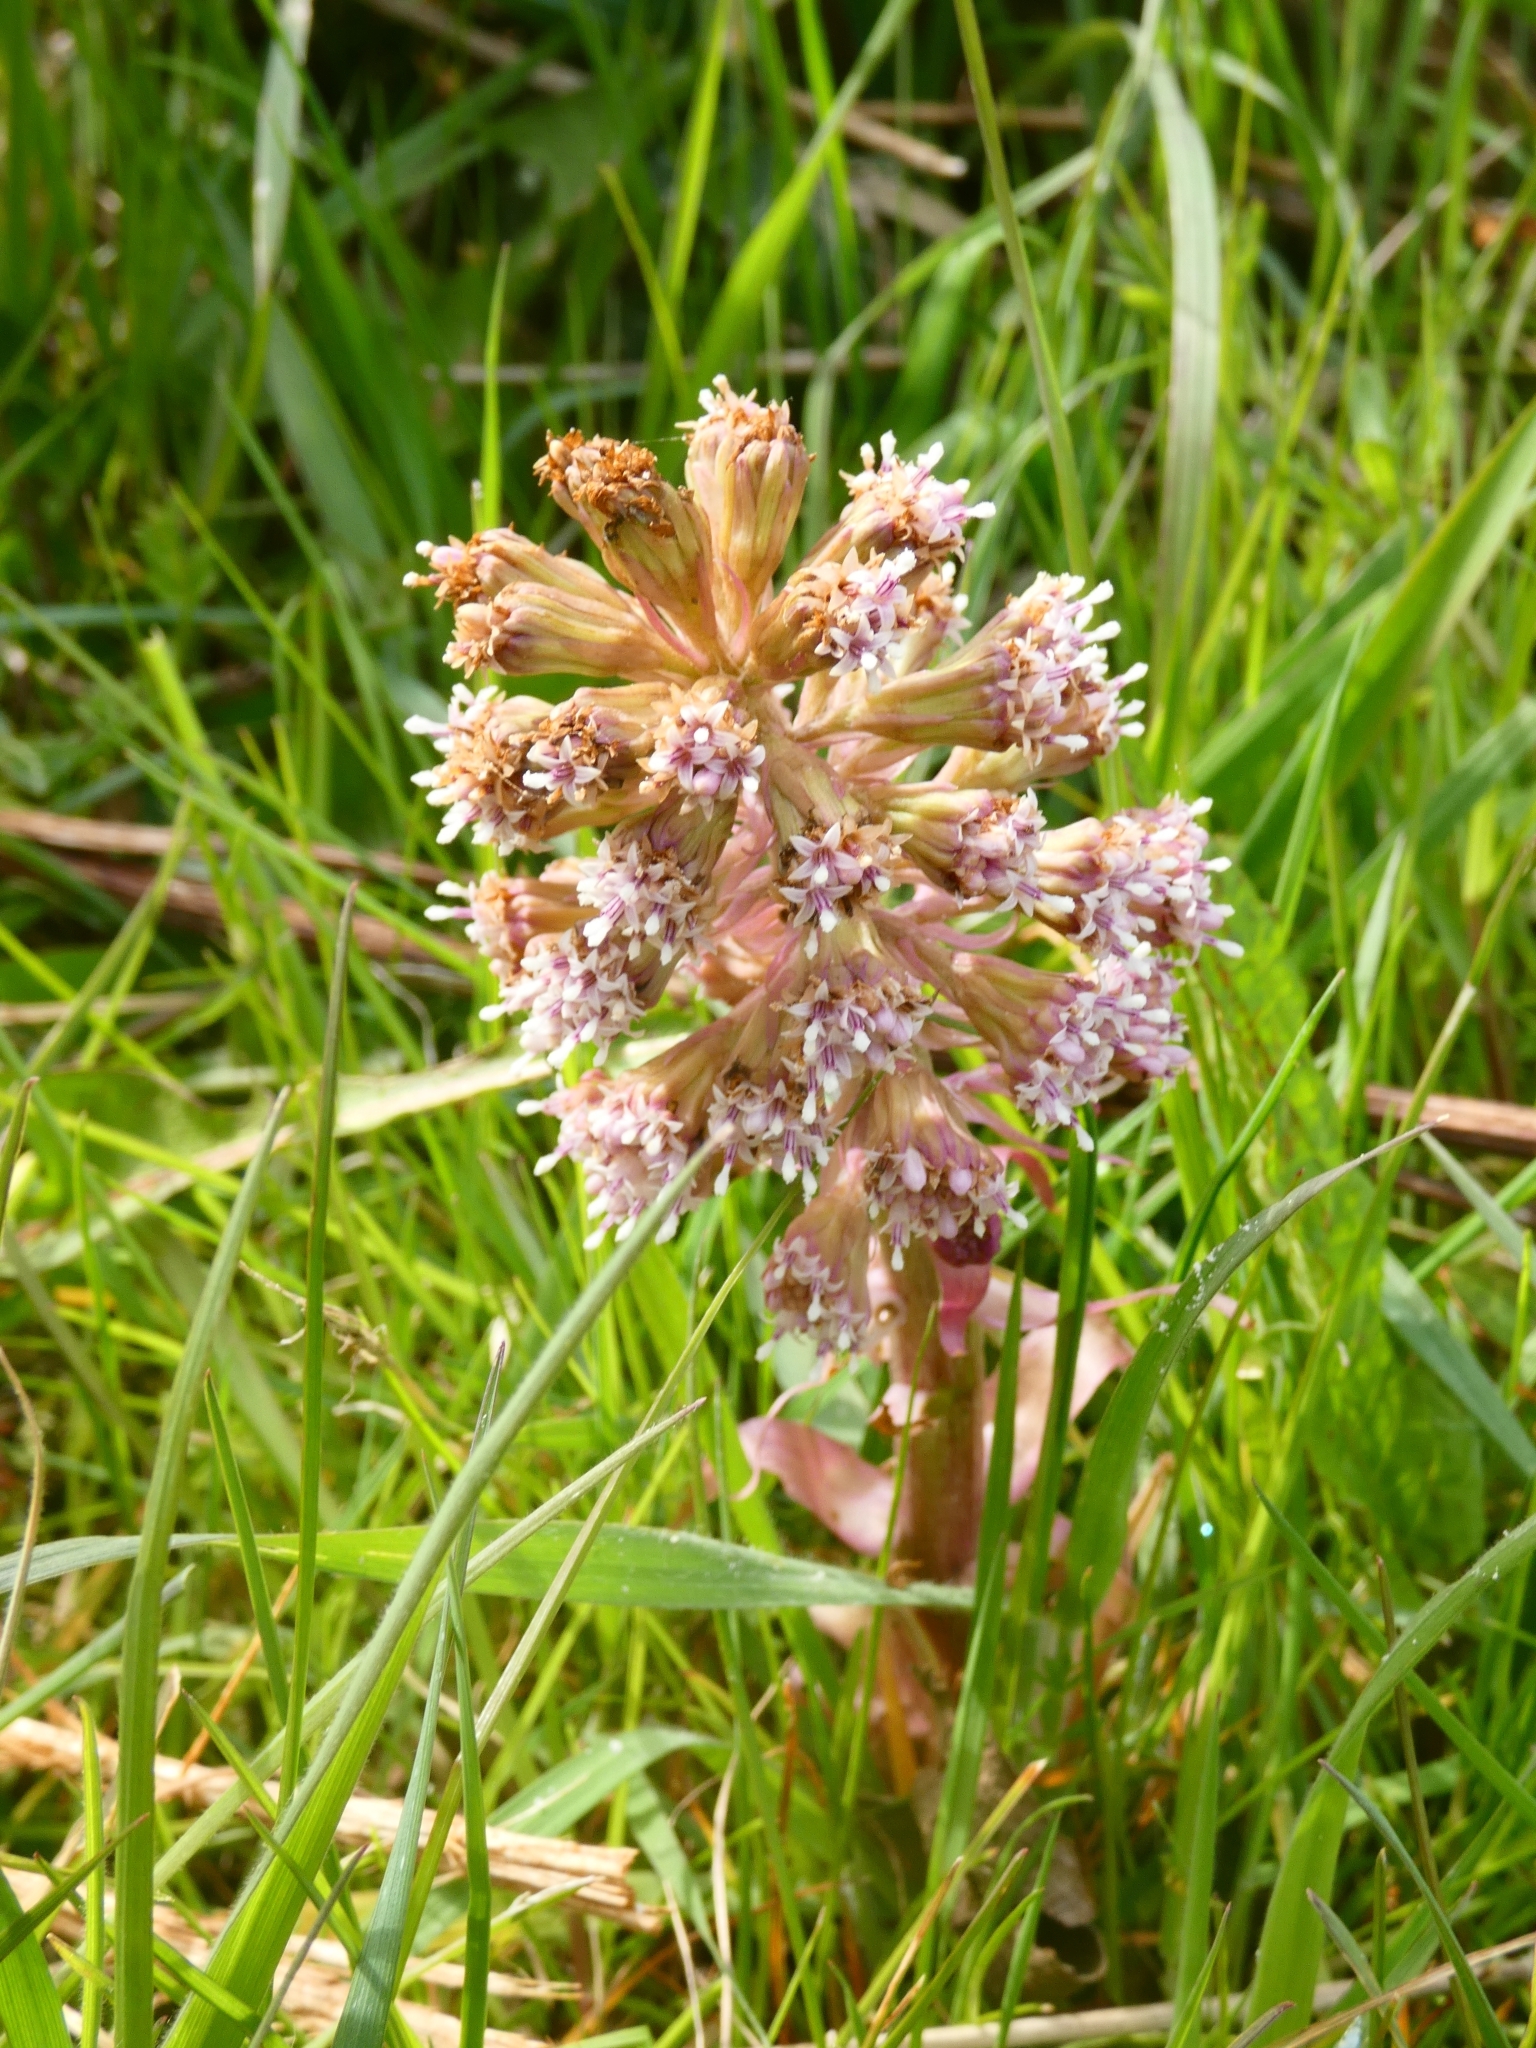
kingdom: Plantae
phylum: Tracheophyta
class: Magnoliopsida
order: Asterales
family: Asteraceae
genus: Petasites
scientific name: Petasites hybridus
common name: Butterbur
